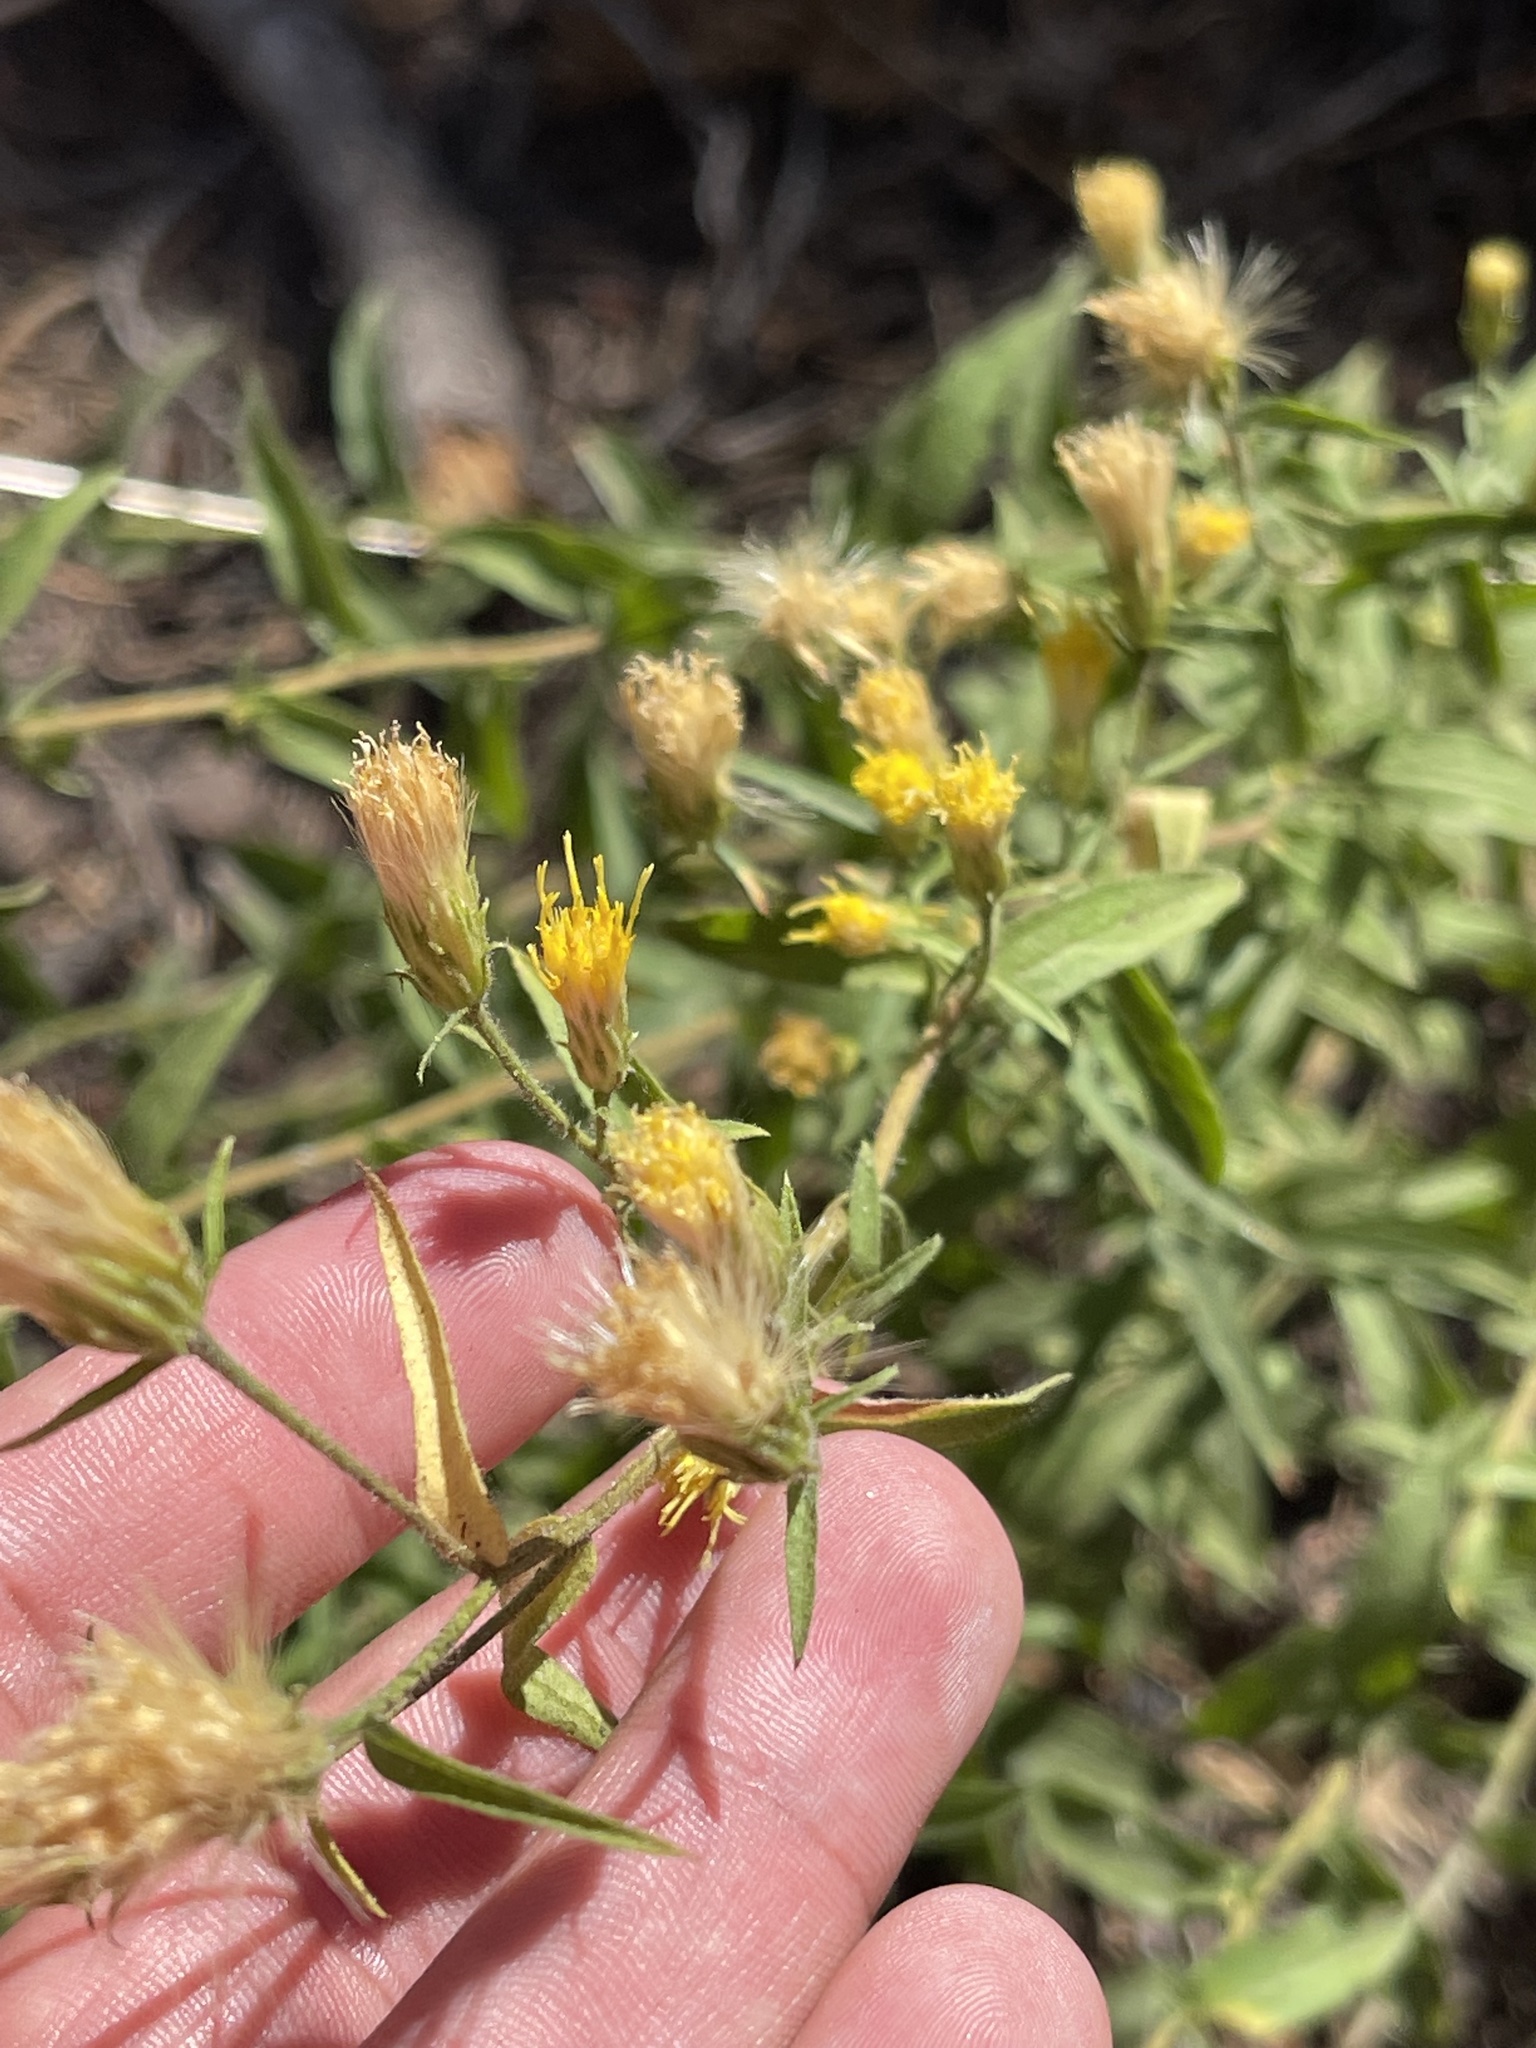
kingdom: Plantae
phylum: Tracheophyta
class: Magnoliopsida
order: Asterales
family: Asteraceae
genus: Eucephalus
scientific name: Eucephalus breweri
